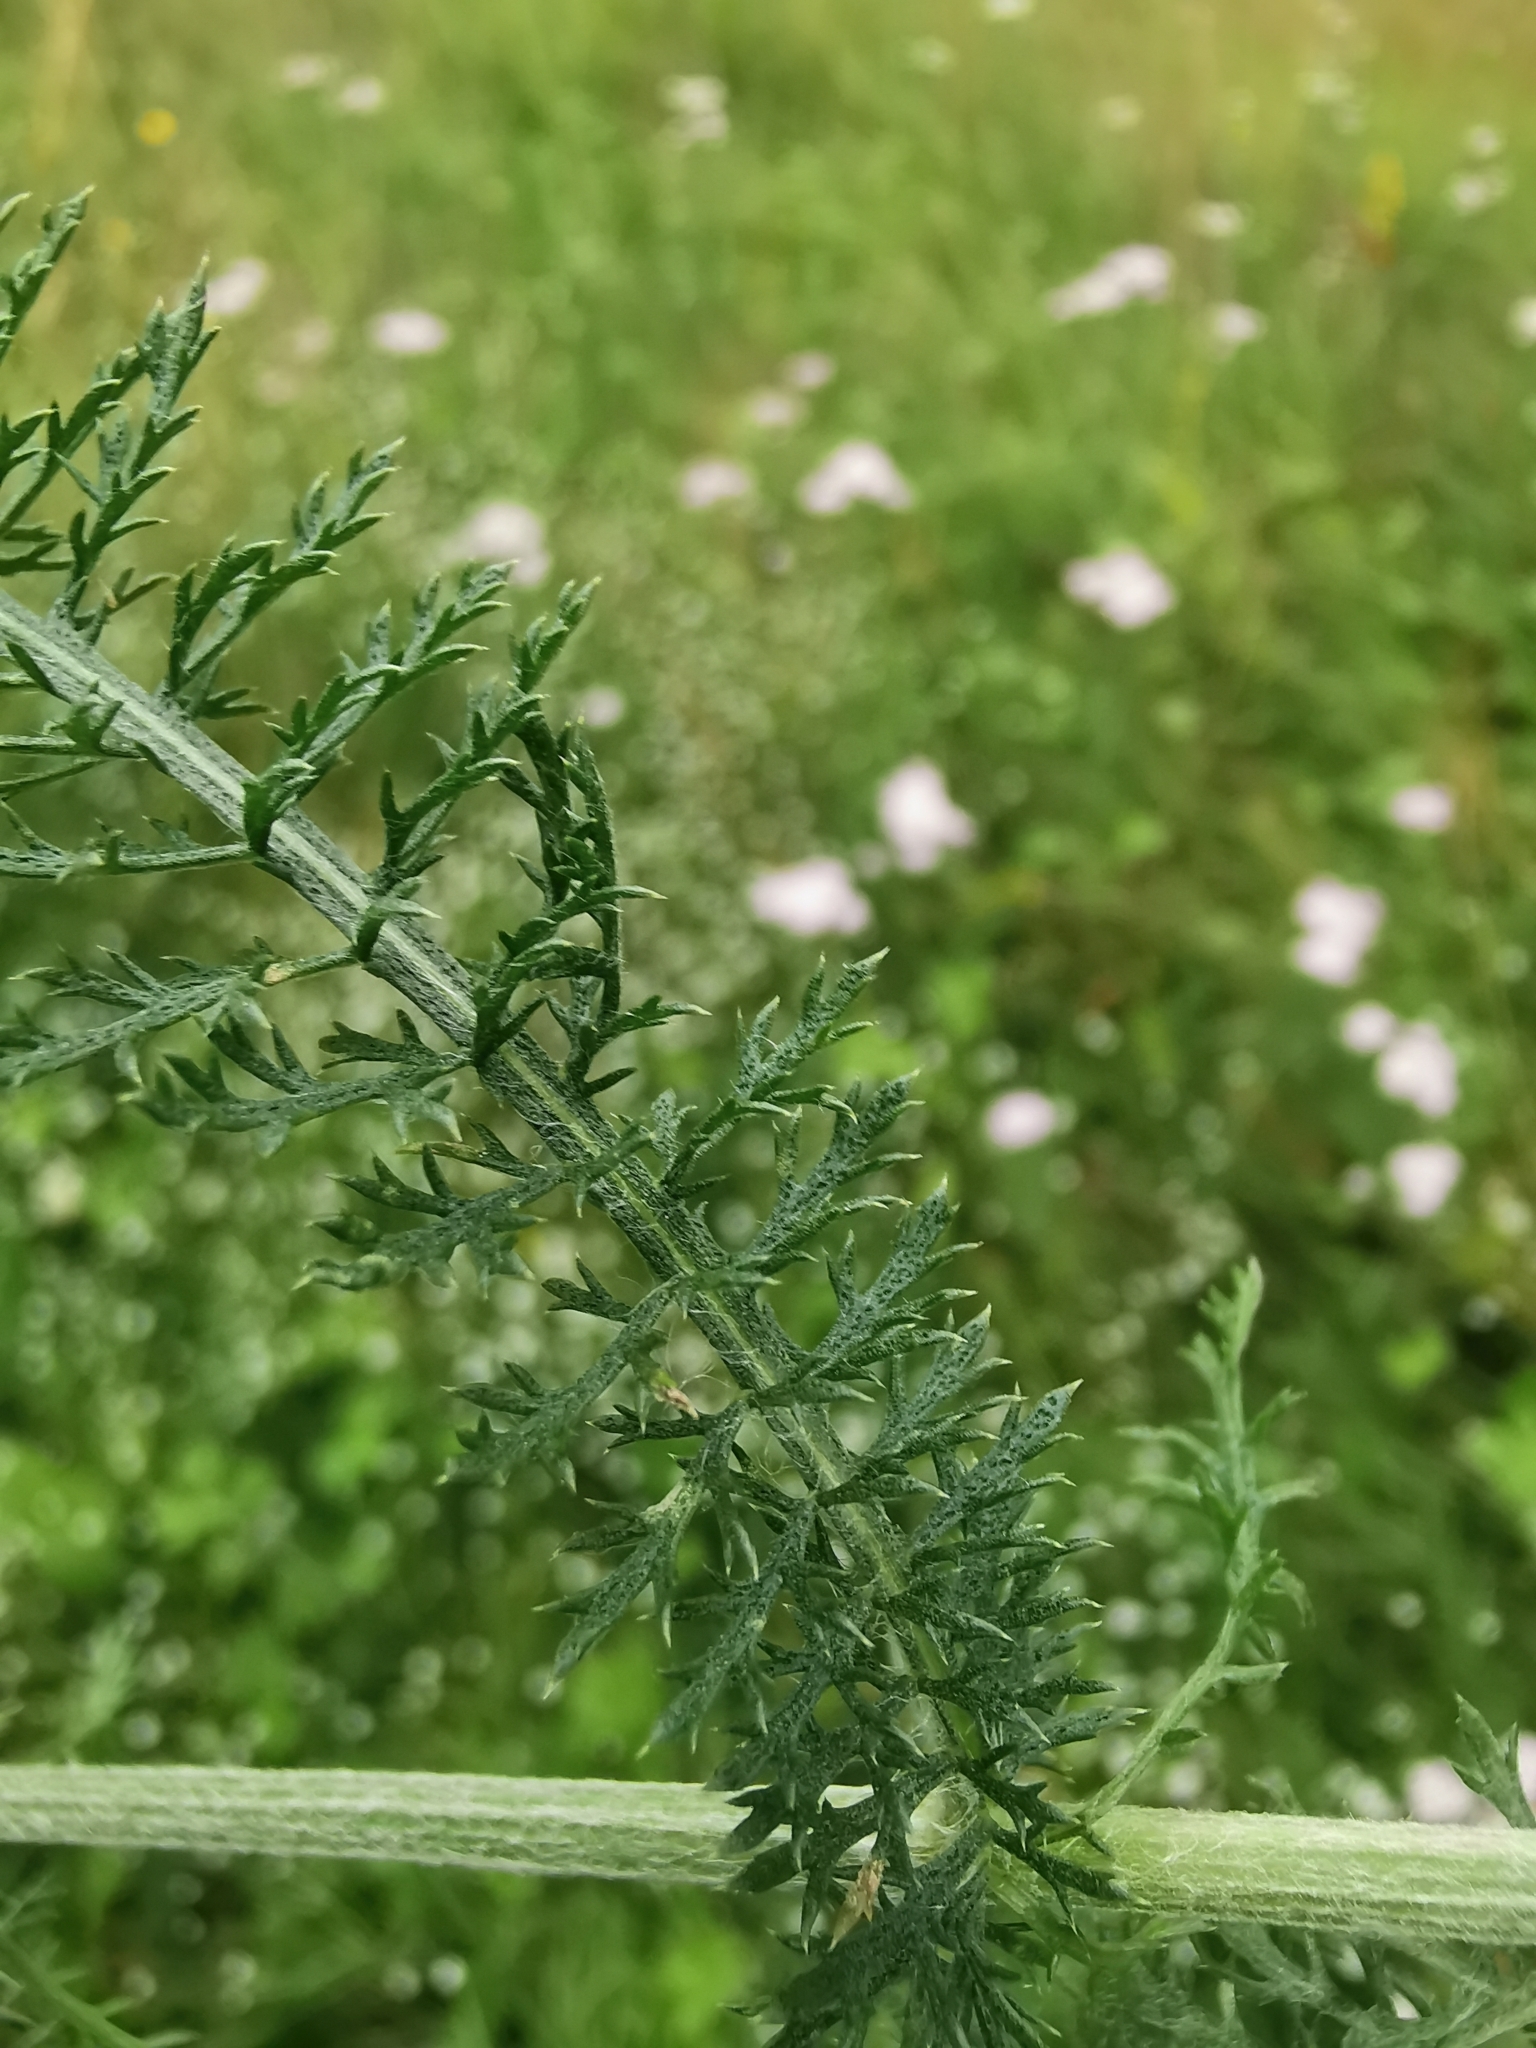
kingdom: Plantae
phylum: Tracheophyta
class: Magnoliopsida
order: Asterales
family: Asteraceae
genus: Achillea
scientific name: Achillea millefolium
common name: Yarrow
